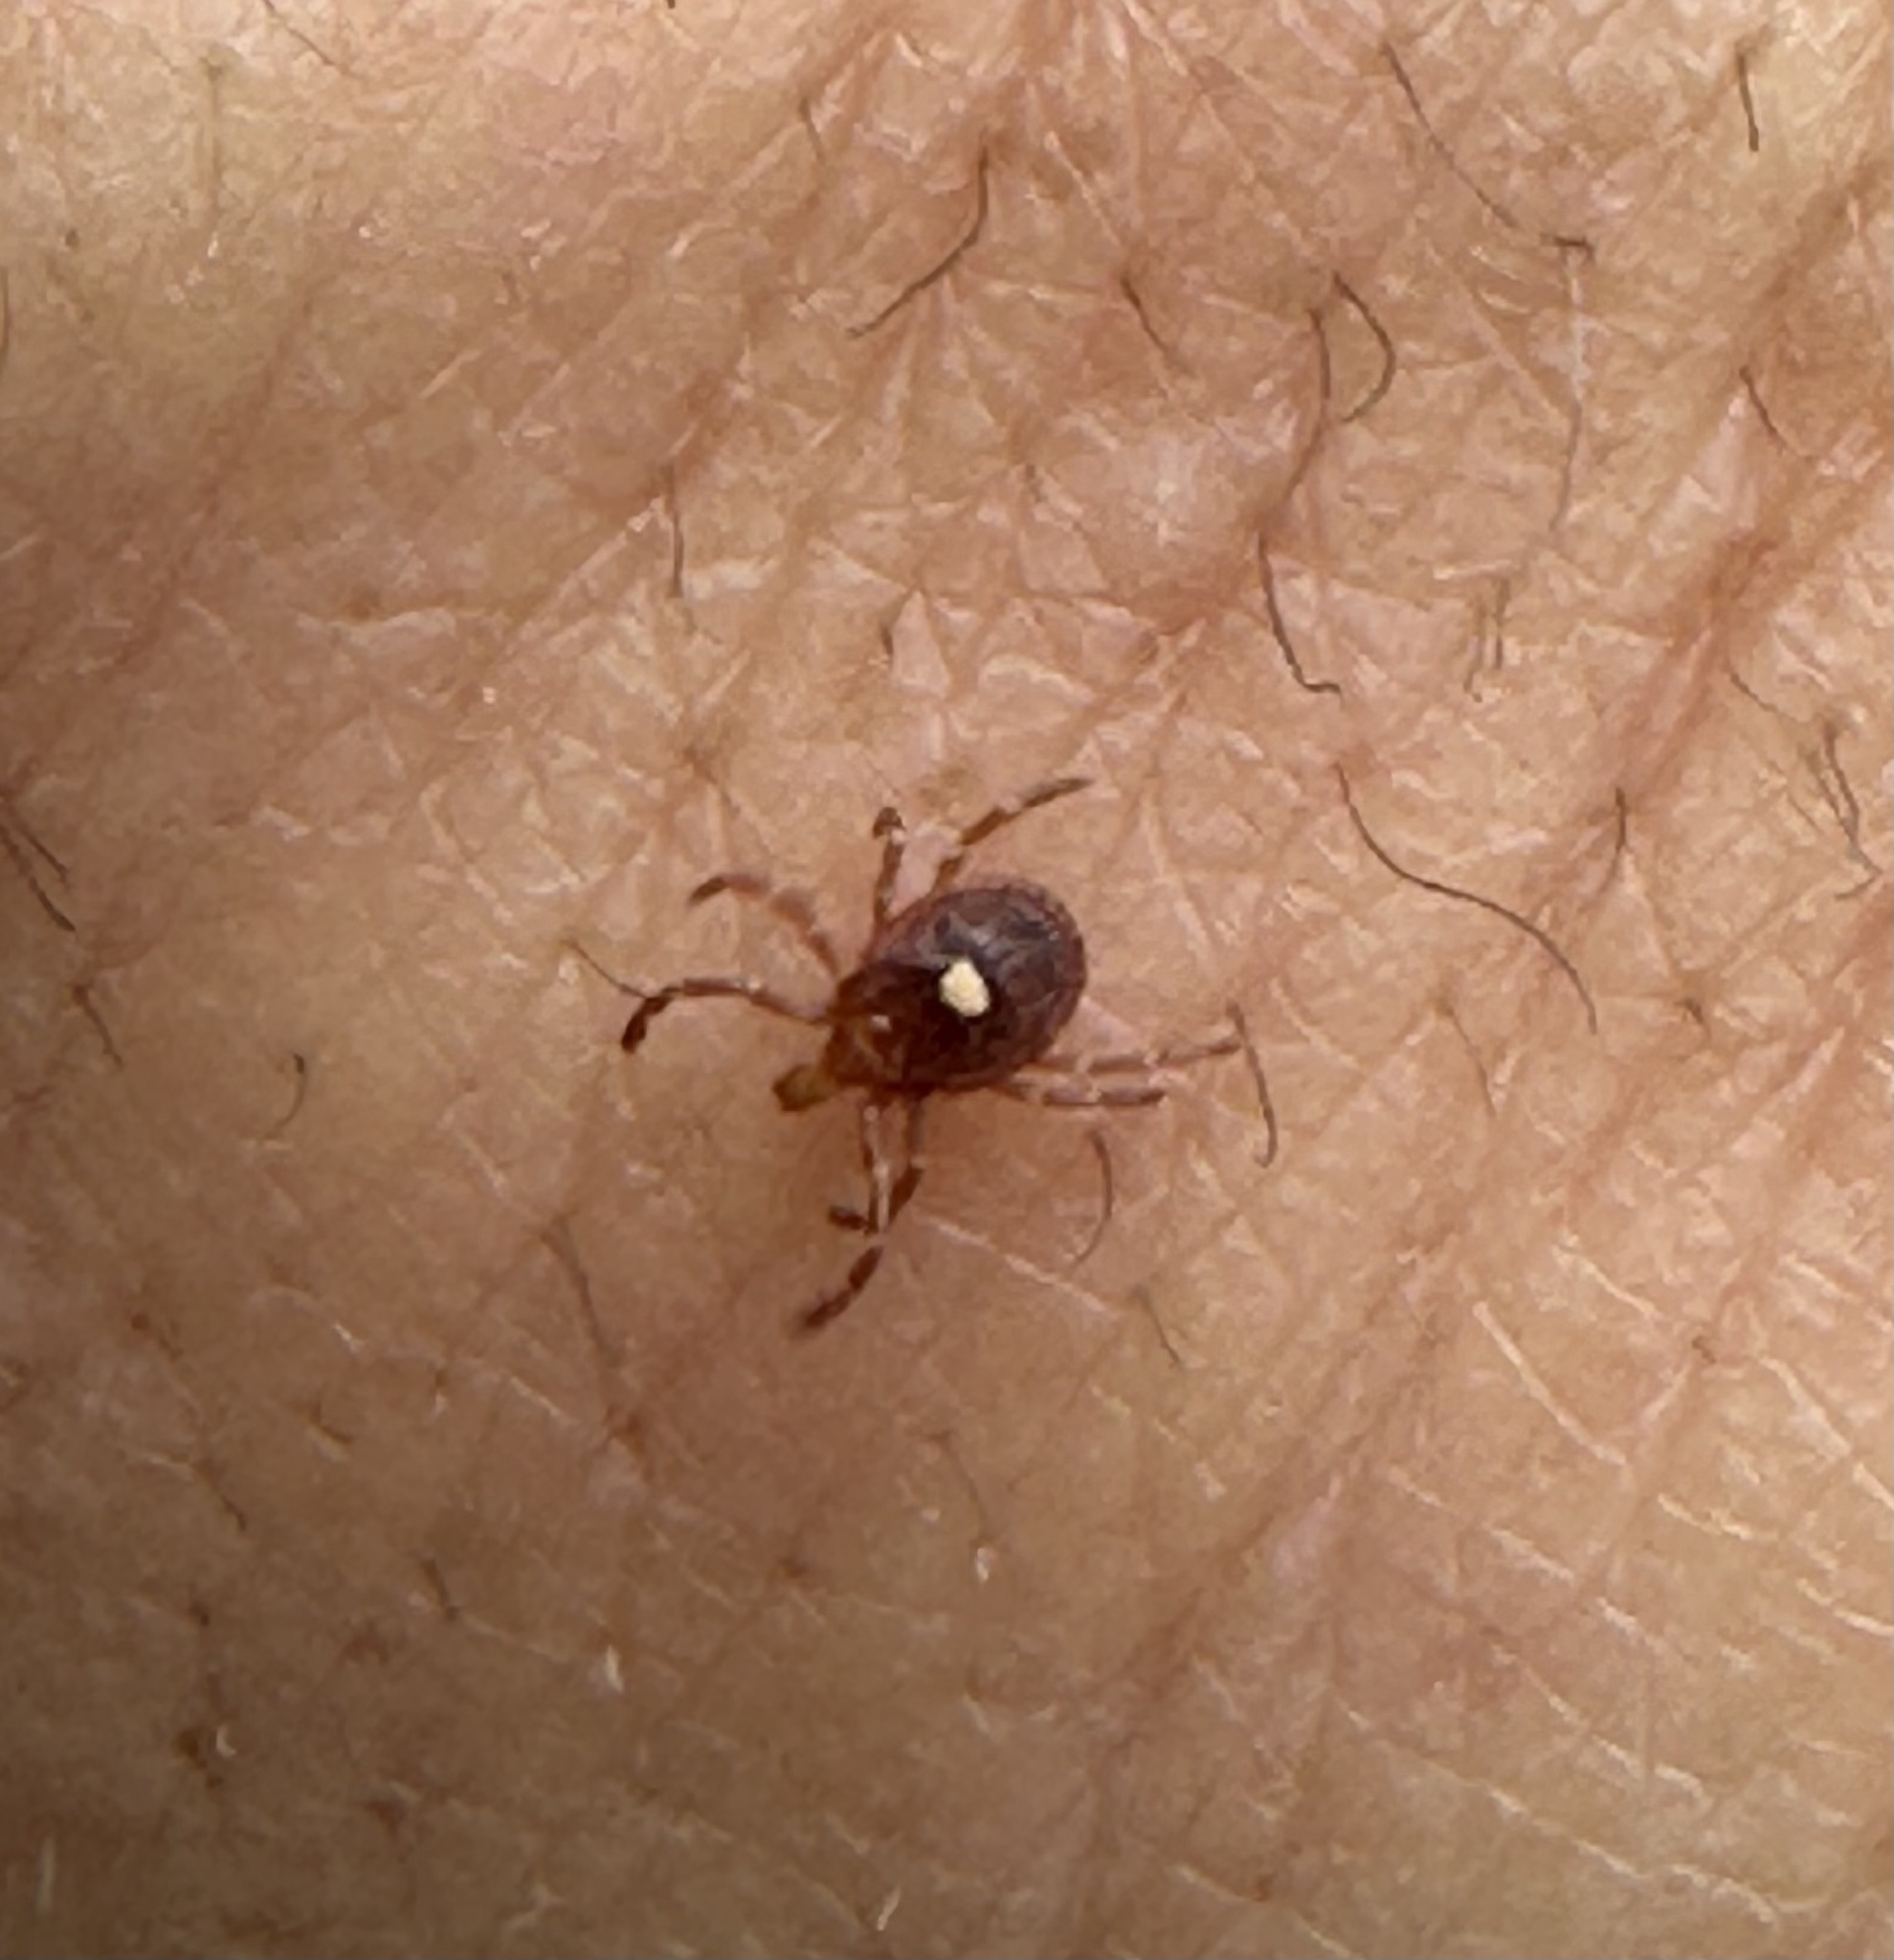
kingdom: Animalia
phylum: Arthropoda
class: Arachnida
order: Ixodida
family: Ixodidae
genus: Amblyomma
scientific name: Amblyomma americanum
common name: Lone star tick
